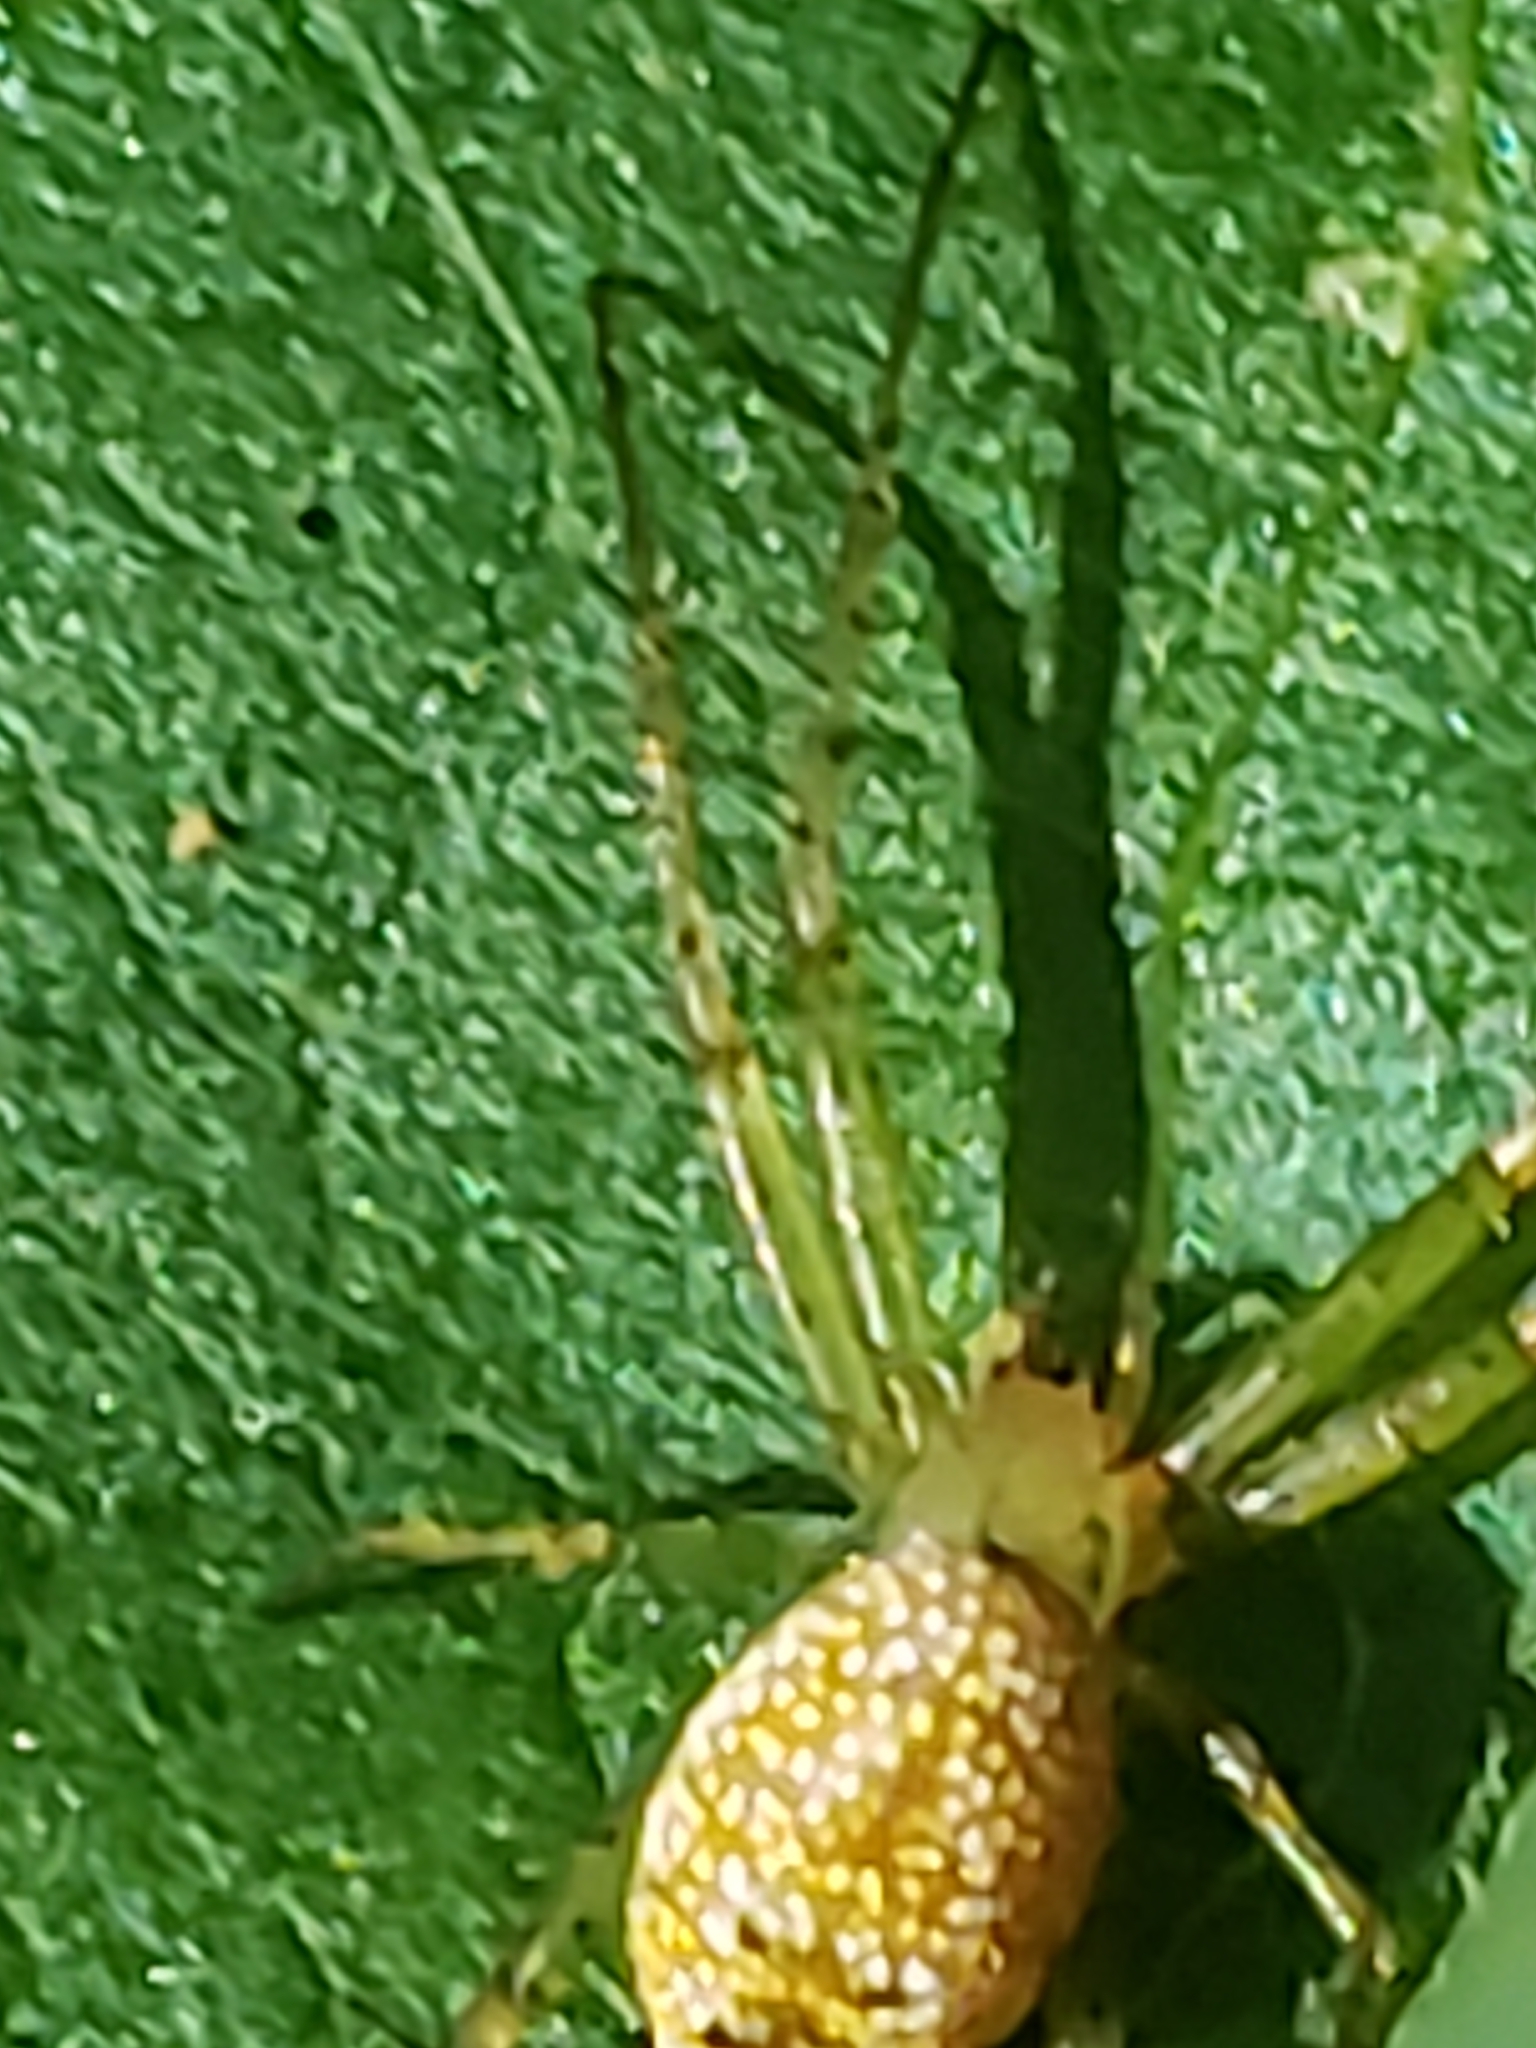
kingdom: Animalia
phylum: Arthropoda
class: Arachnida
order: Araneae
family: Araneidae
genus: Mangora
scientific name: Mangora maculata
